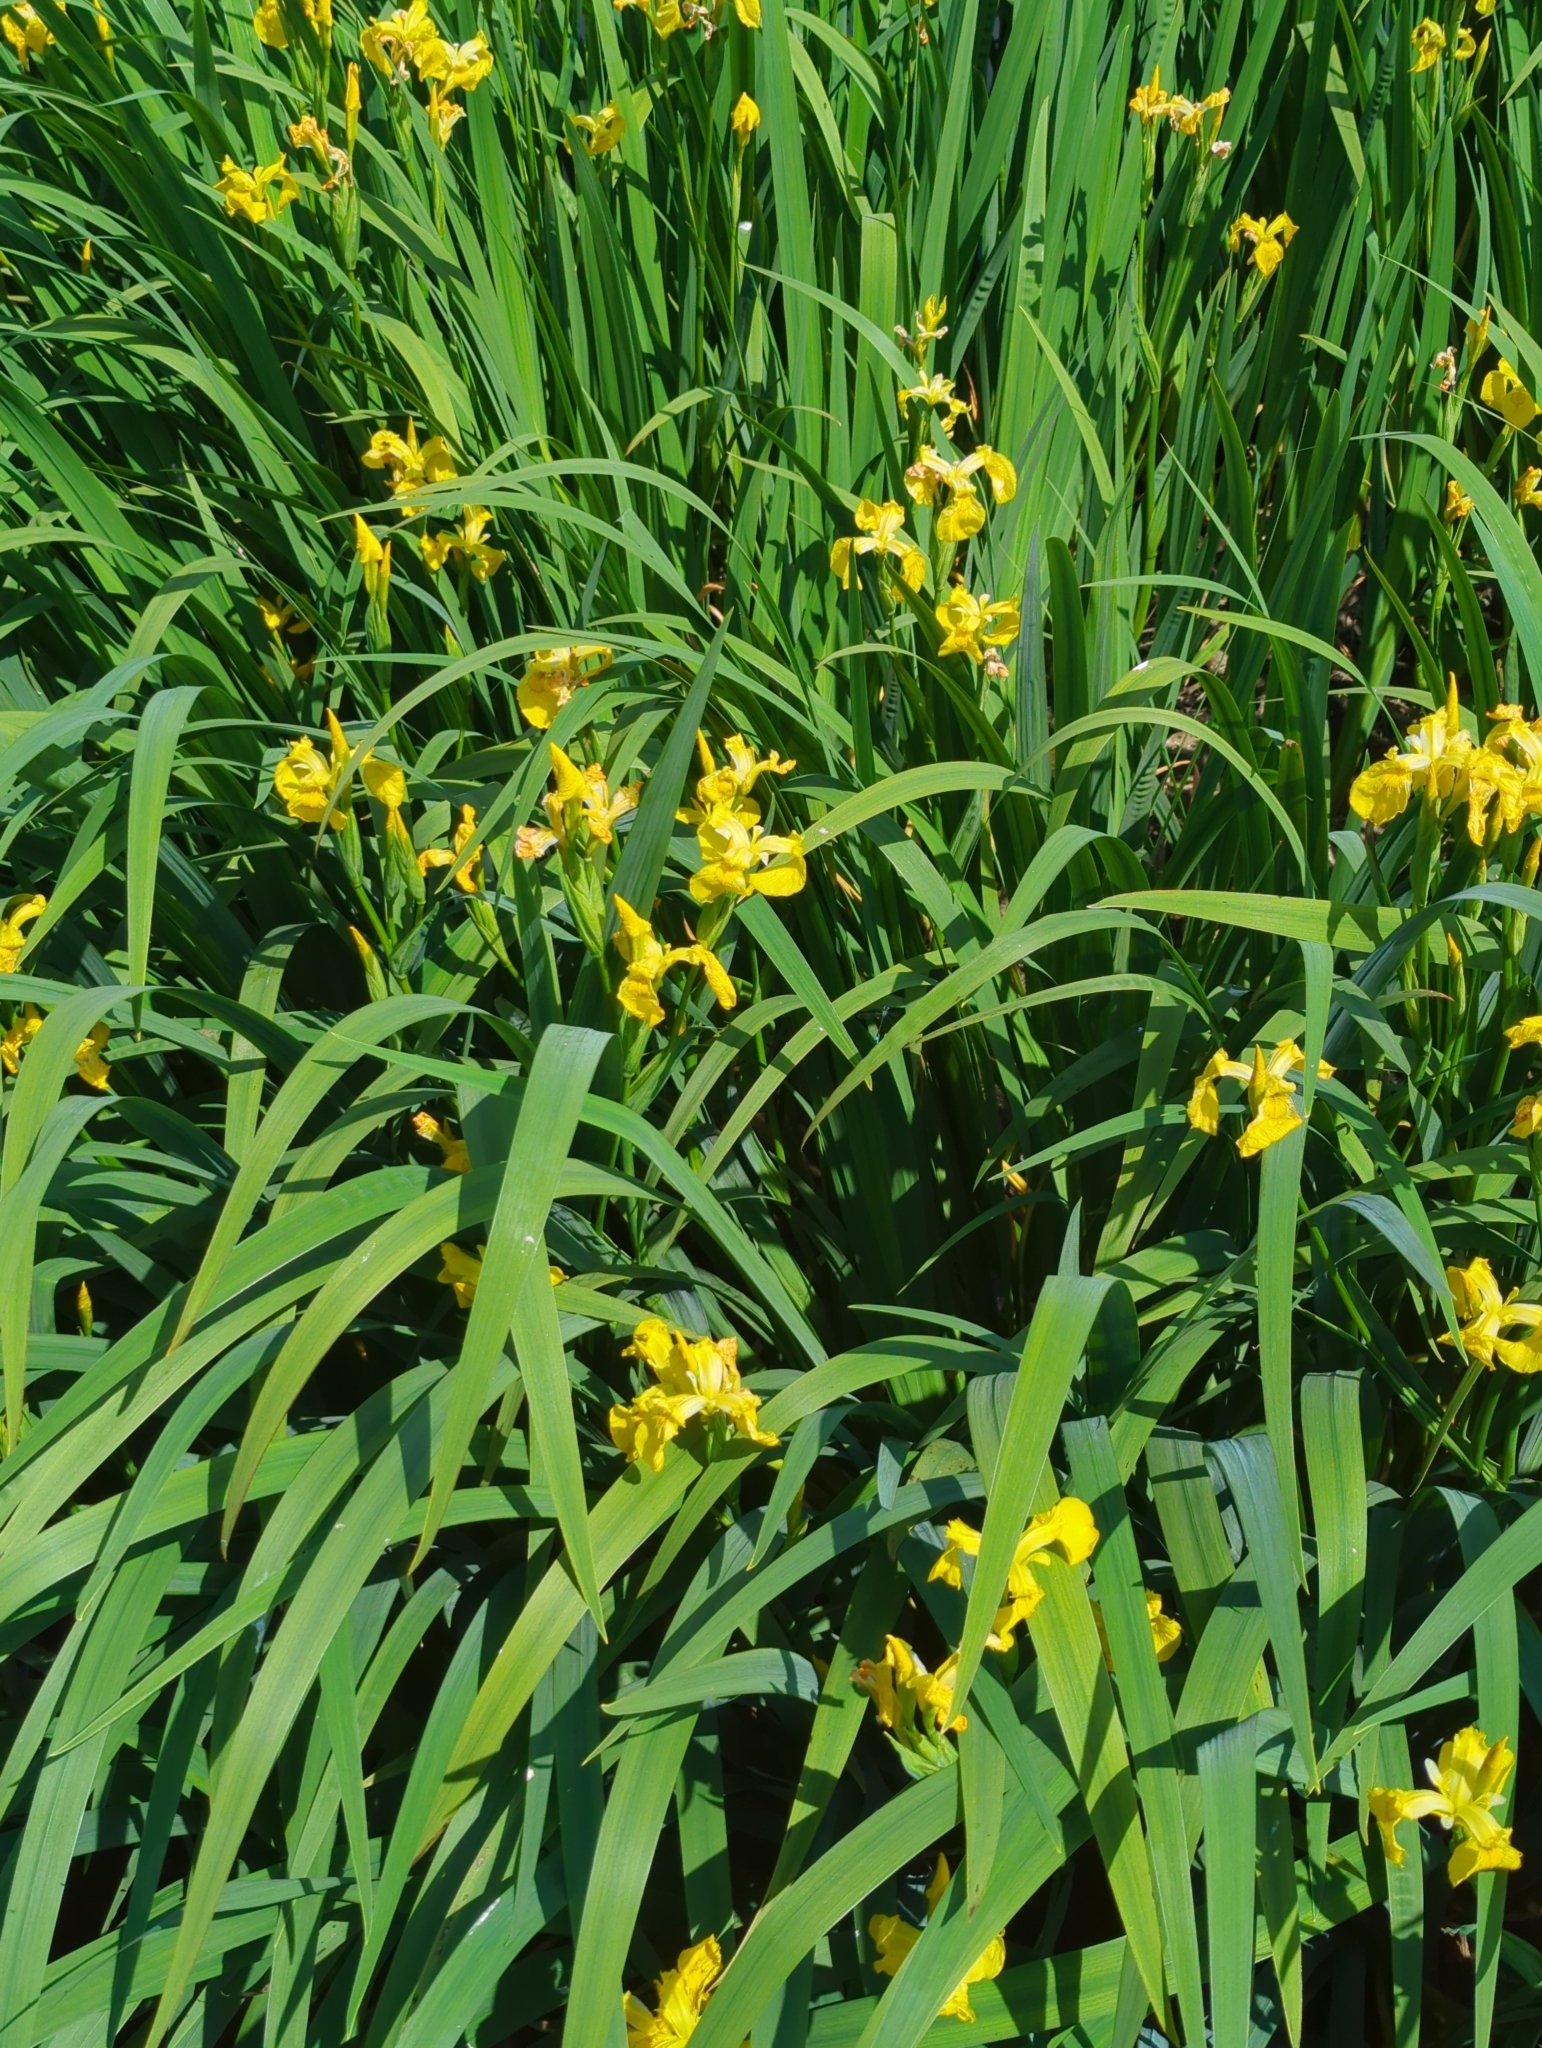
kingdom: Plantae
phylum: Tracheophyta
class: Liliopsida
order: Asparagales
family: Iridaceae
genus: Iris
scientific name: Iris pseudacorus
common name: Yellow flag
